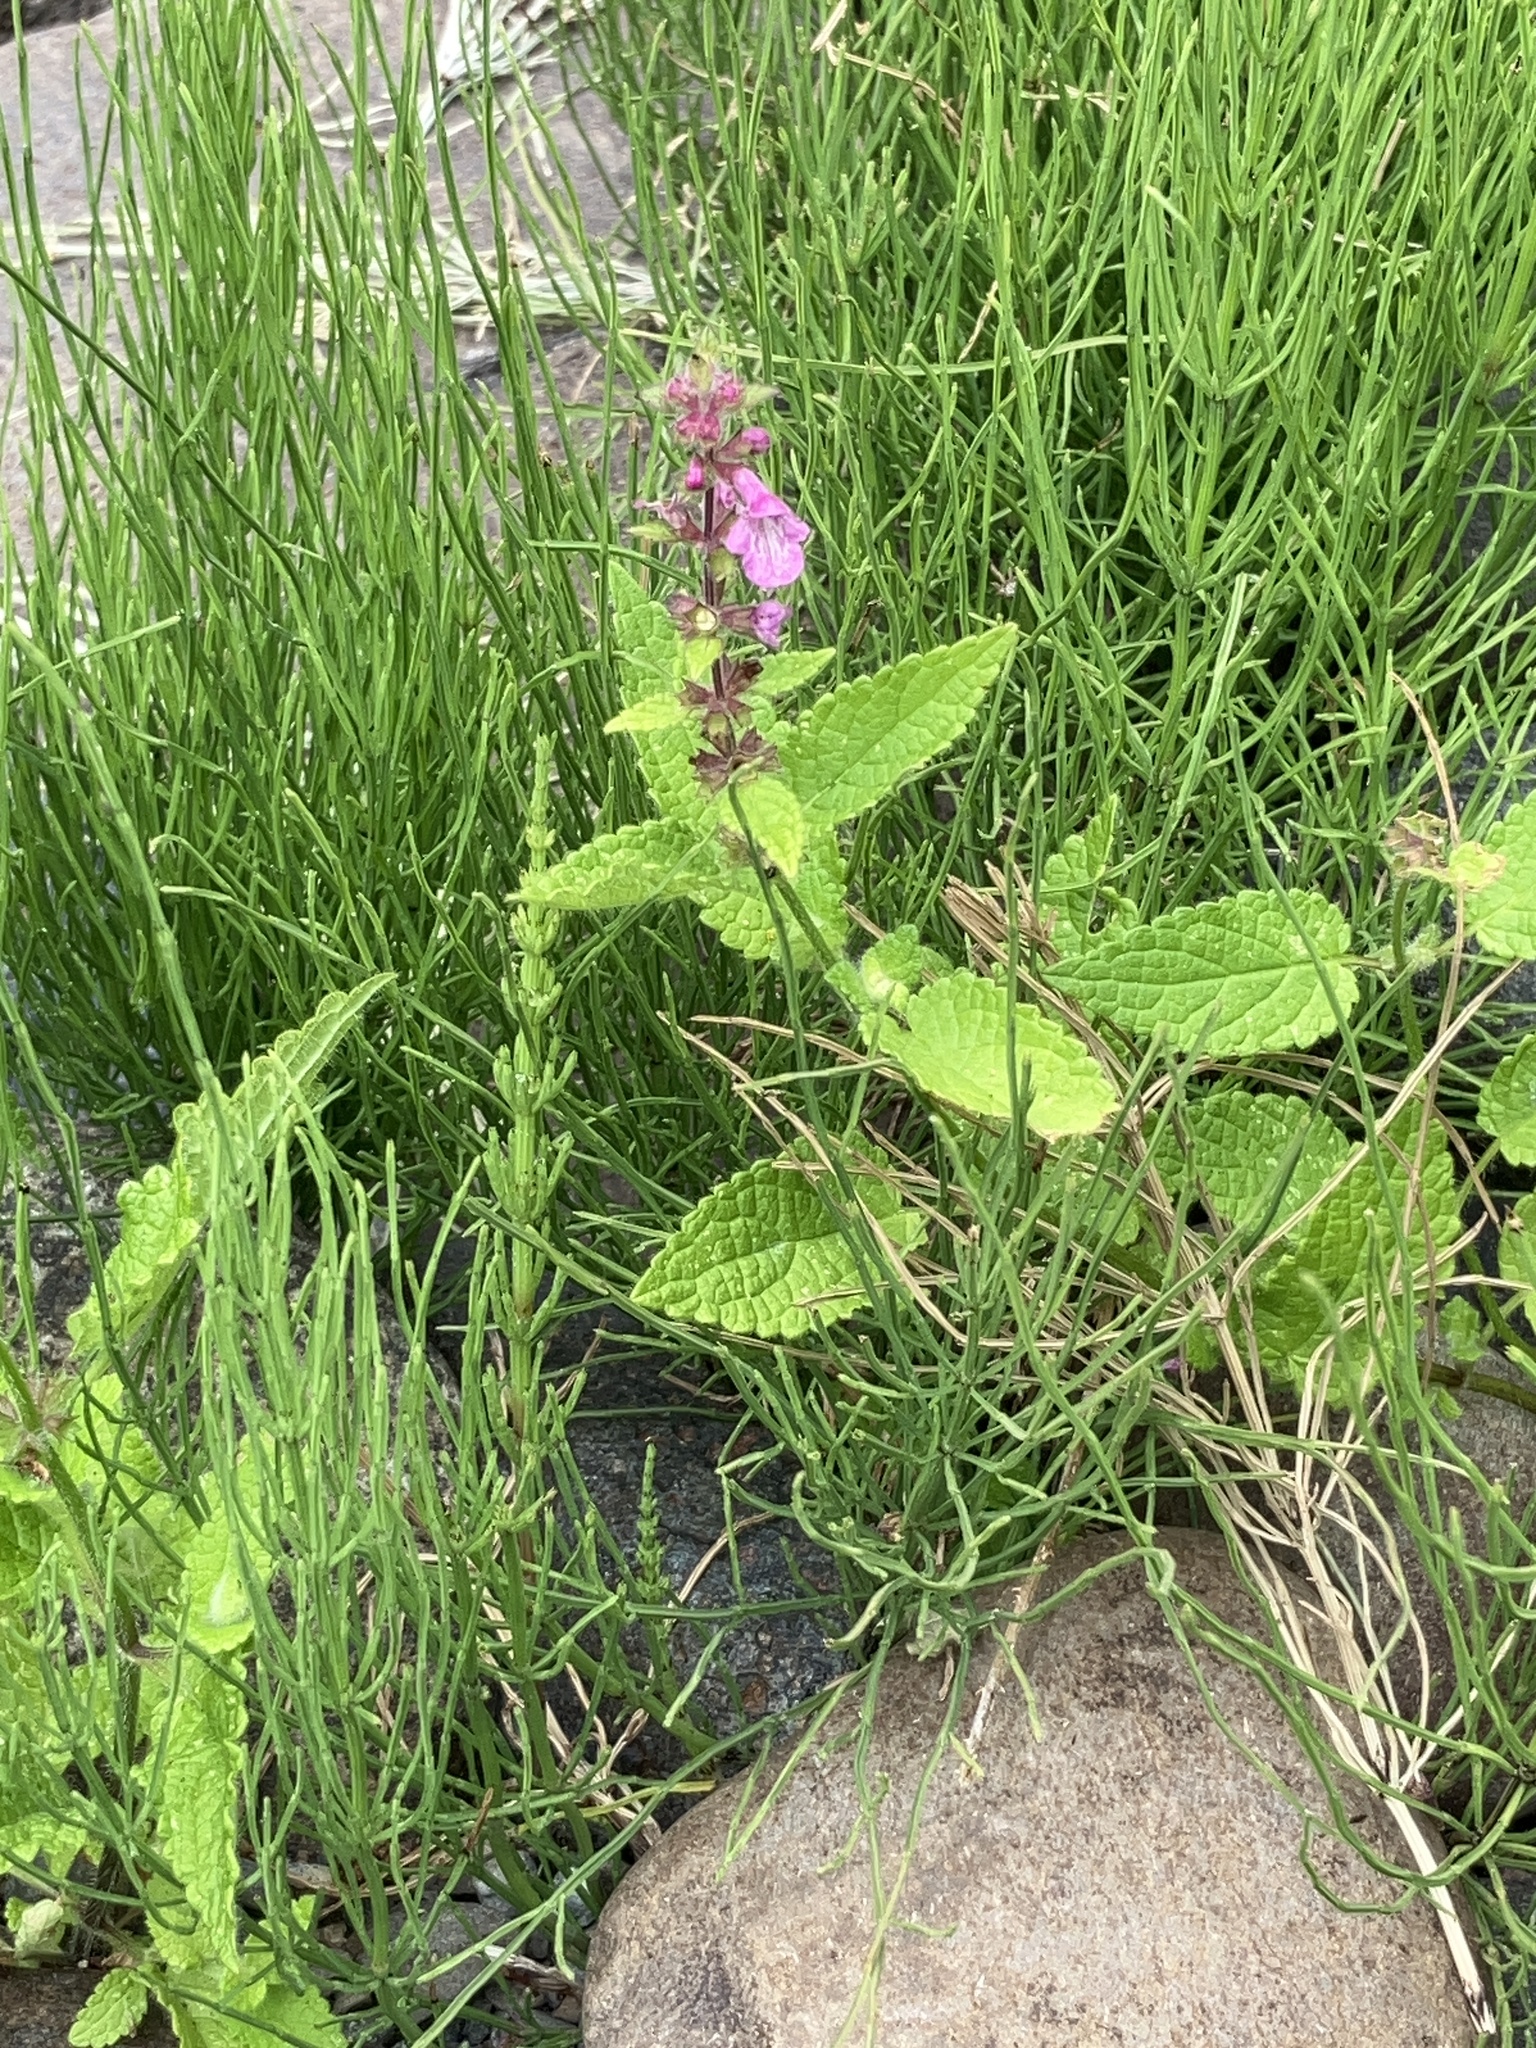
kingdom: Plantae
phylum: Tracheophyta
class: Magnoliopsida
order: Lamiales
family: Lamiaceae
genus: Stachys
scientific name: Stachys mexicana
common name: Mexican hedge-nettle
